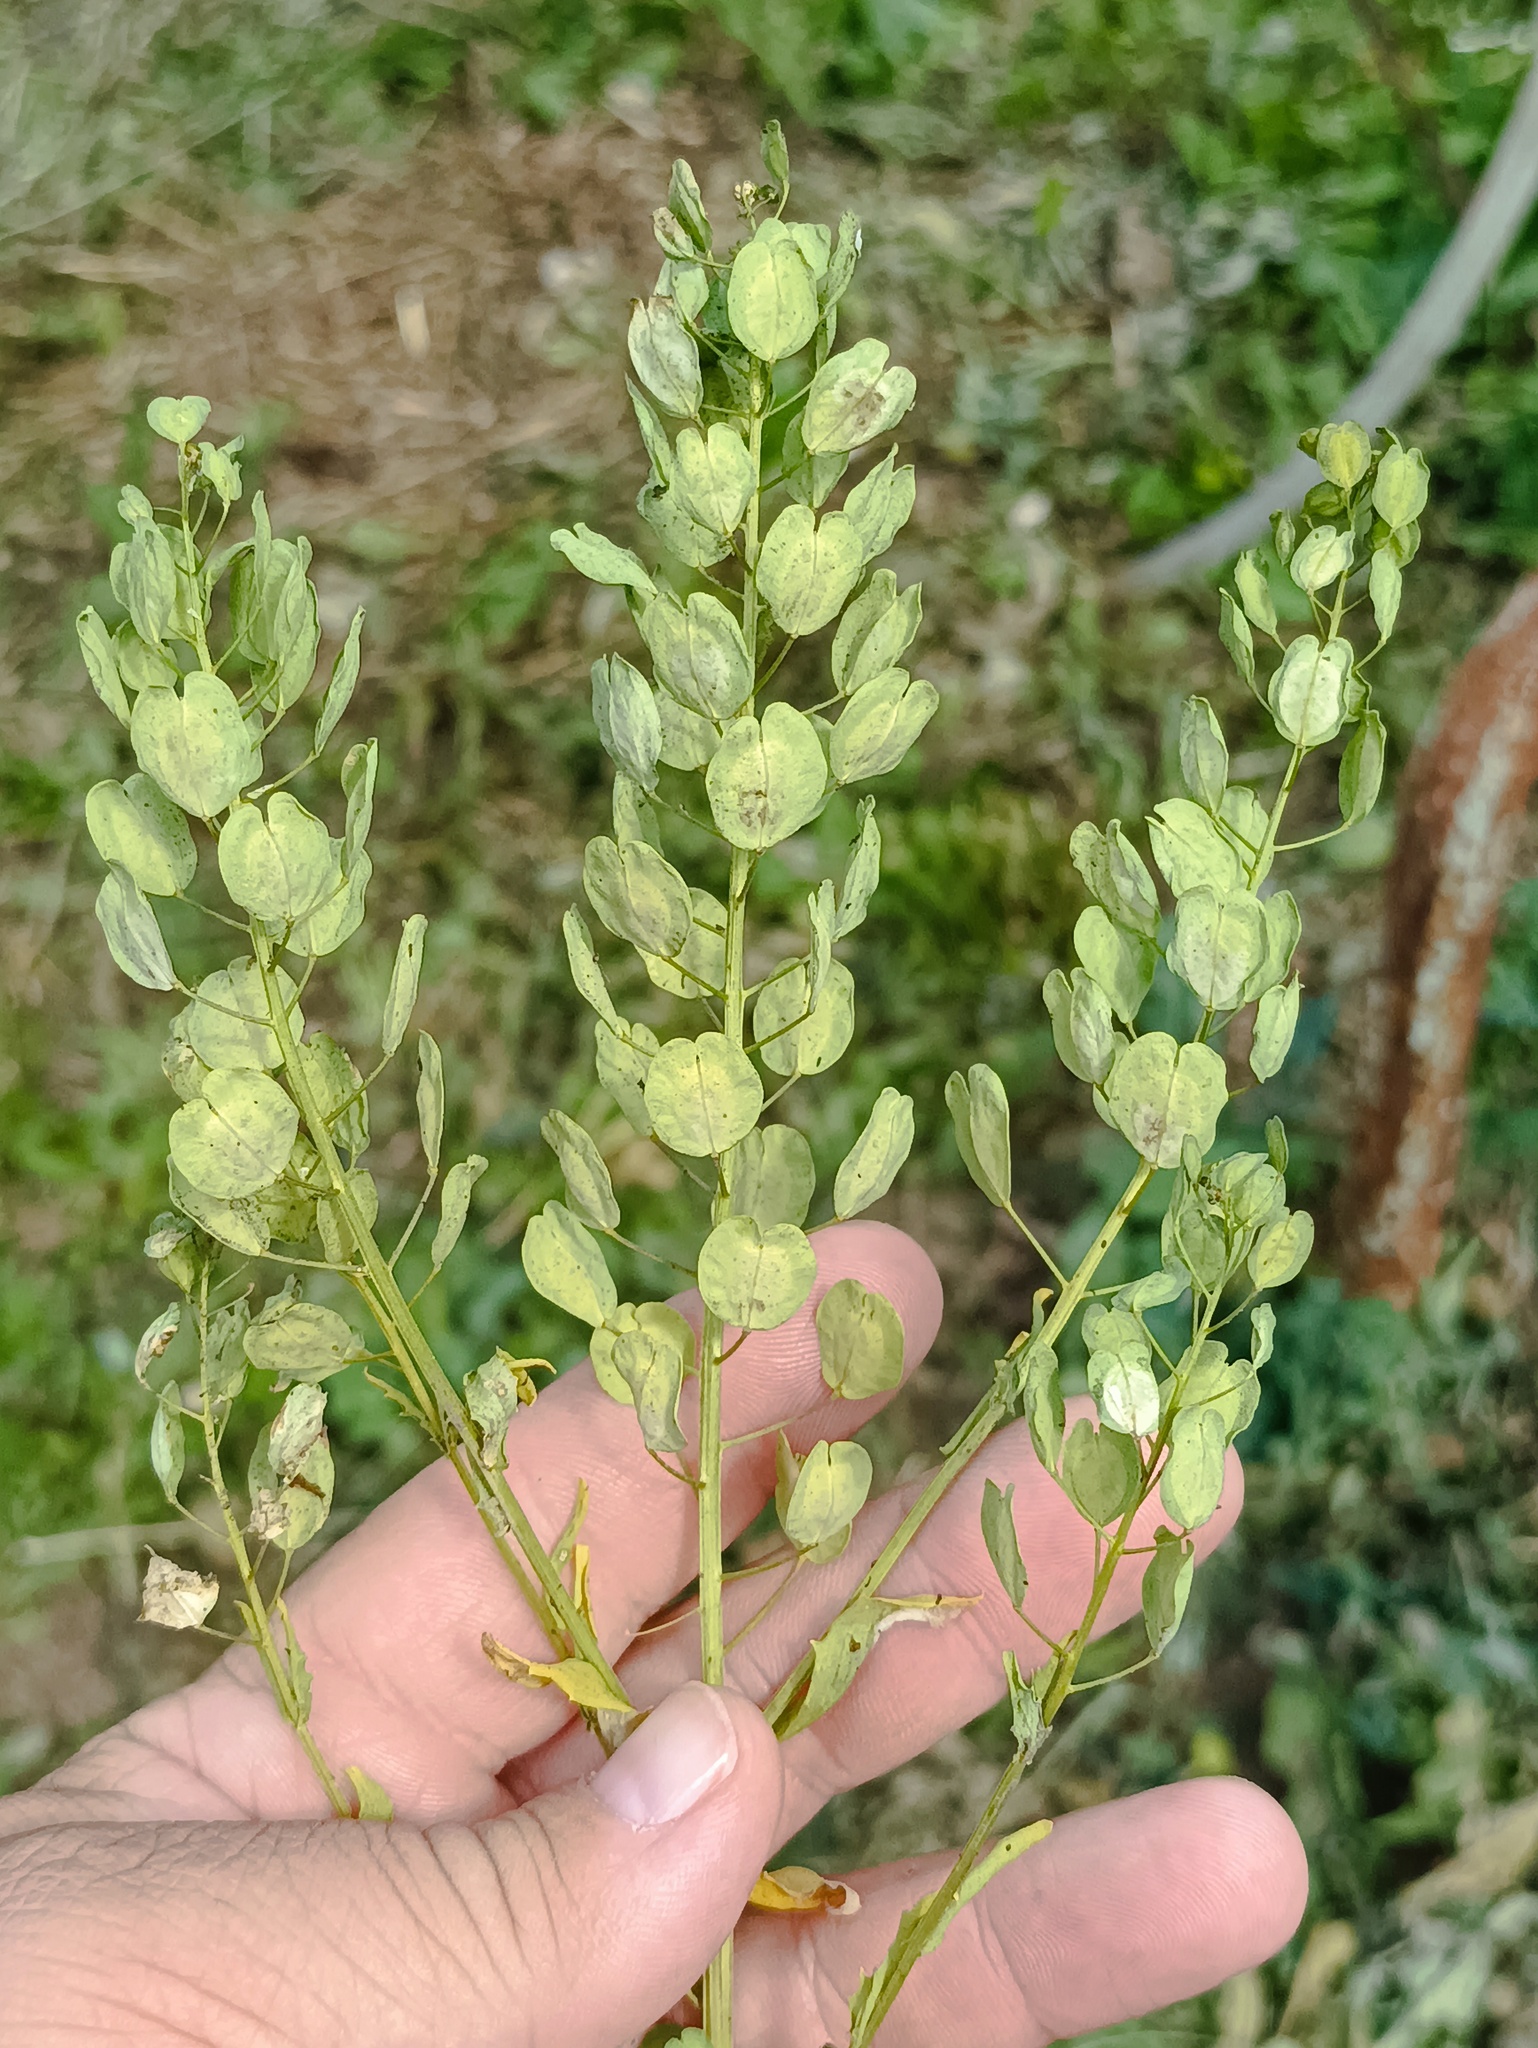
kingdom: Plantae
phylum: Tracheophyta
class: Magnoliopsida
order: Brassicales
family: Brassicaceae
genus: Thlaspi
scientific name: Thlaspi arvense
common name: Field pennycress
